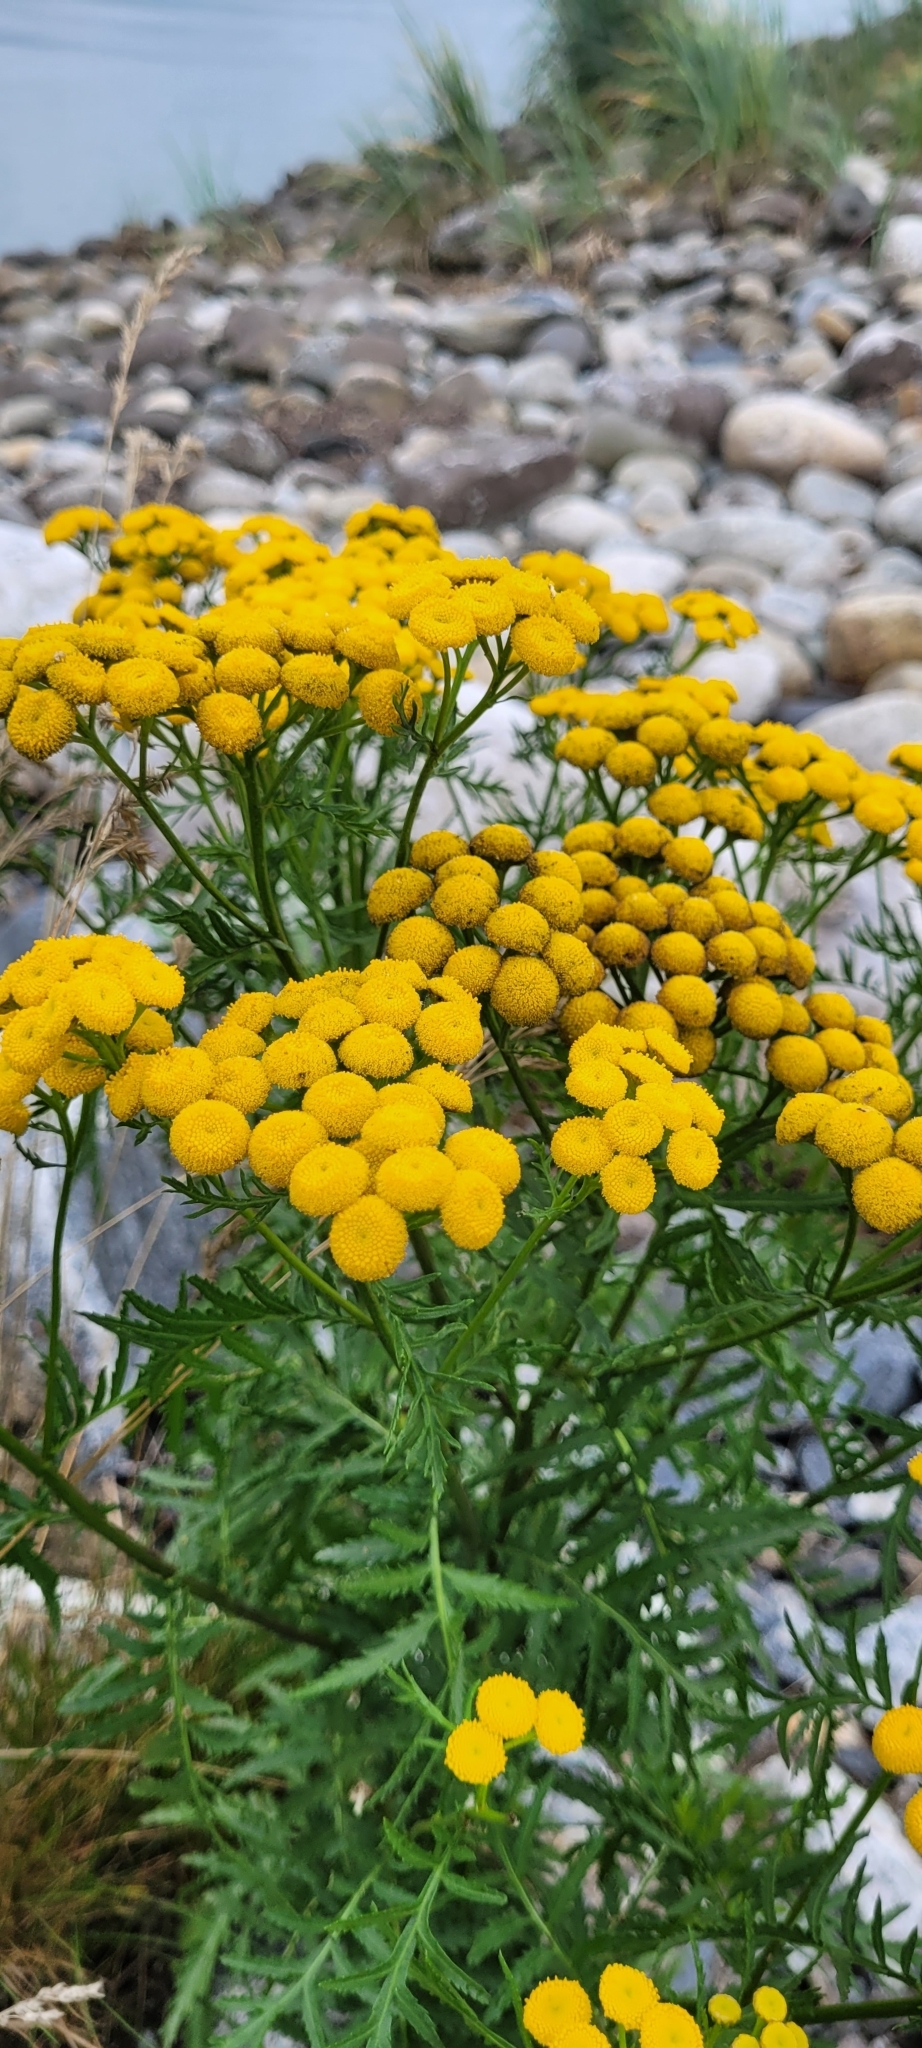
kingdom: Plantae
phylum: Tracheophyta
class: Magnoliopsida
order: Asterales
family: Asteraceae
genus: Tanacetum
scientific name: Tanacetum vulgare
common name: Common tansy
